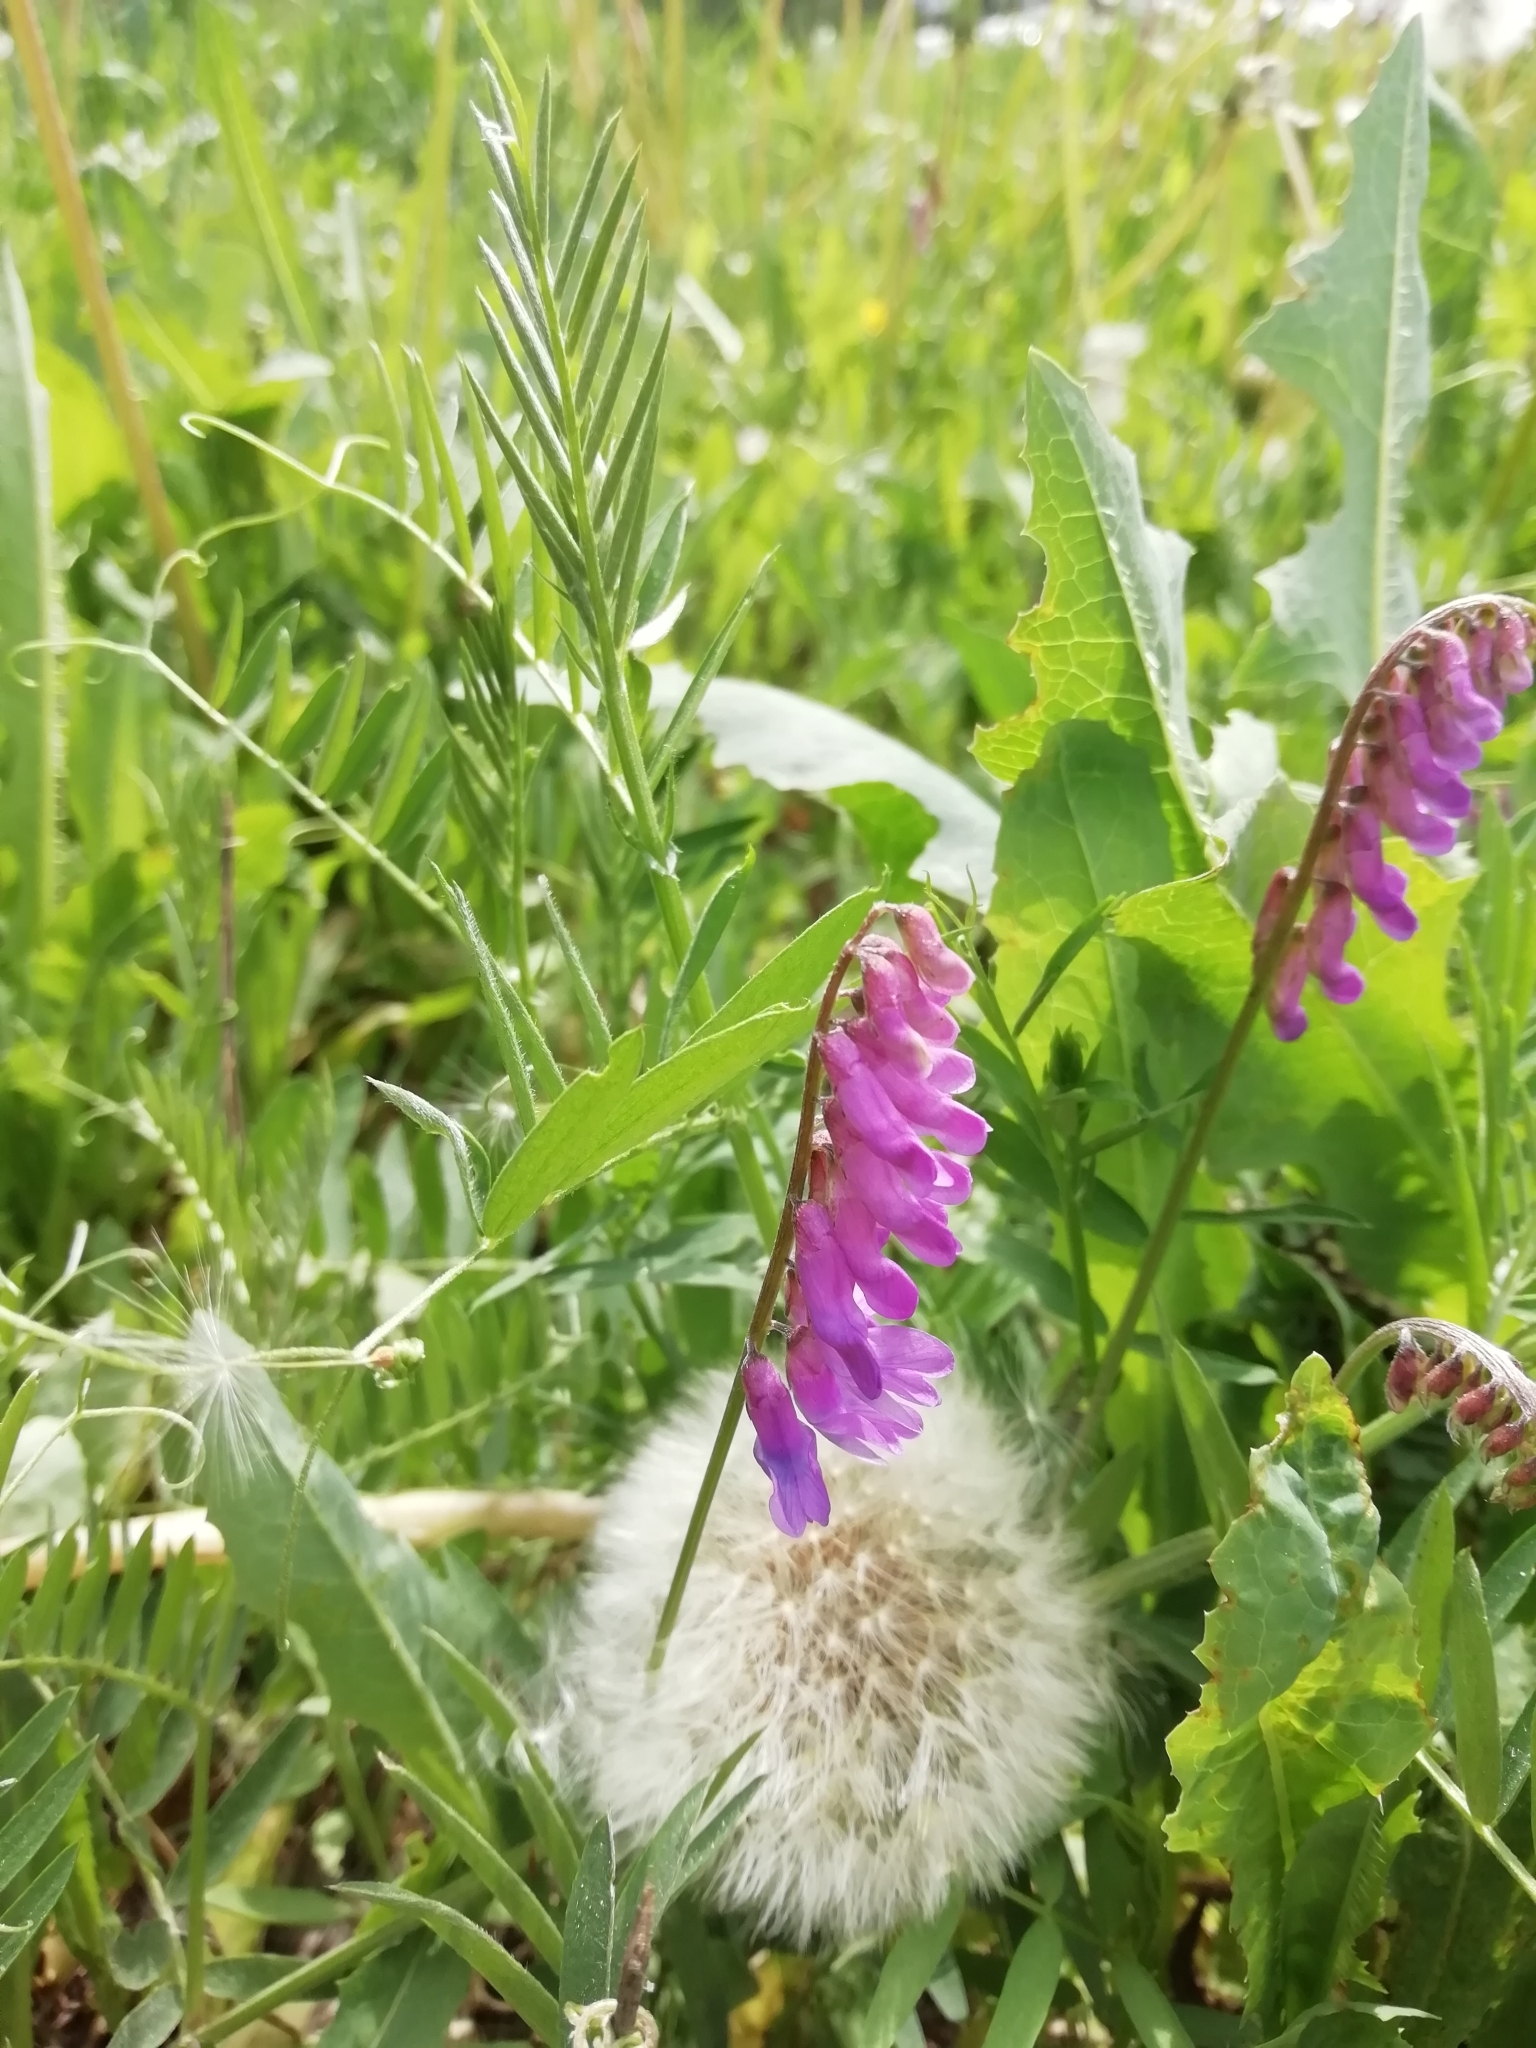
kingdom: Plantae
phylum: Tracheophyta
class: Magnoliopsida
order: Fabales
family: Fabaceae
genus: Vicia
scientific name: Vicia cracca
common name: Bird vetch
